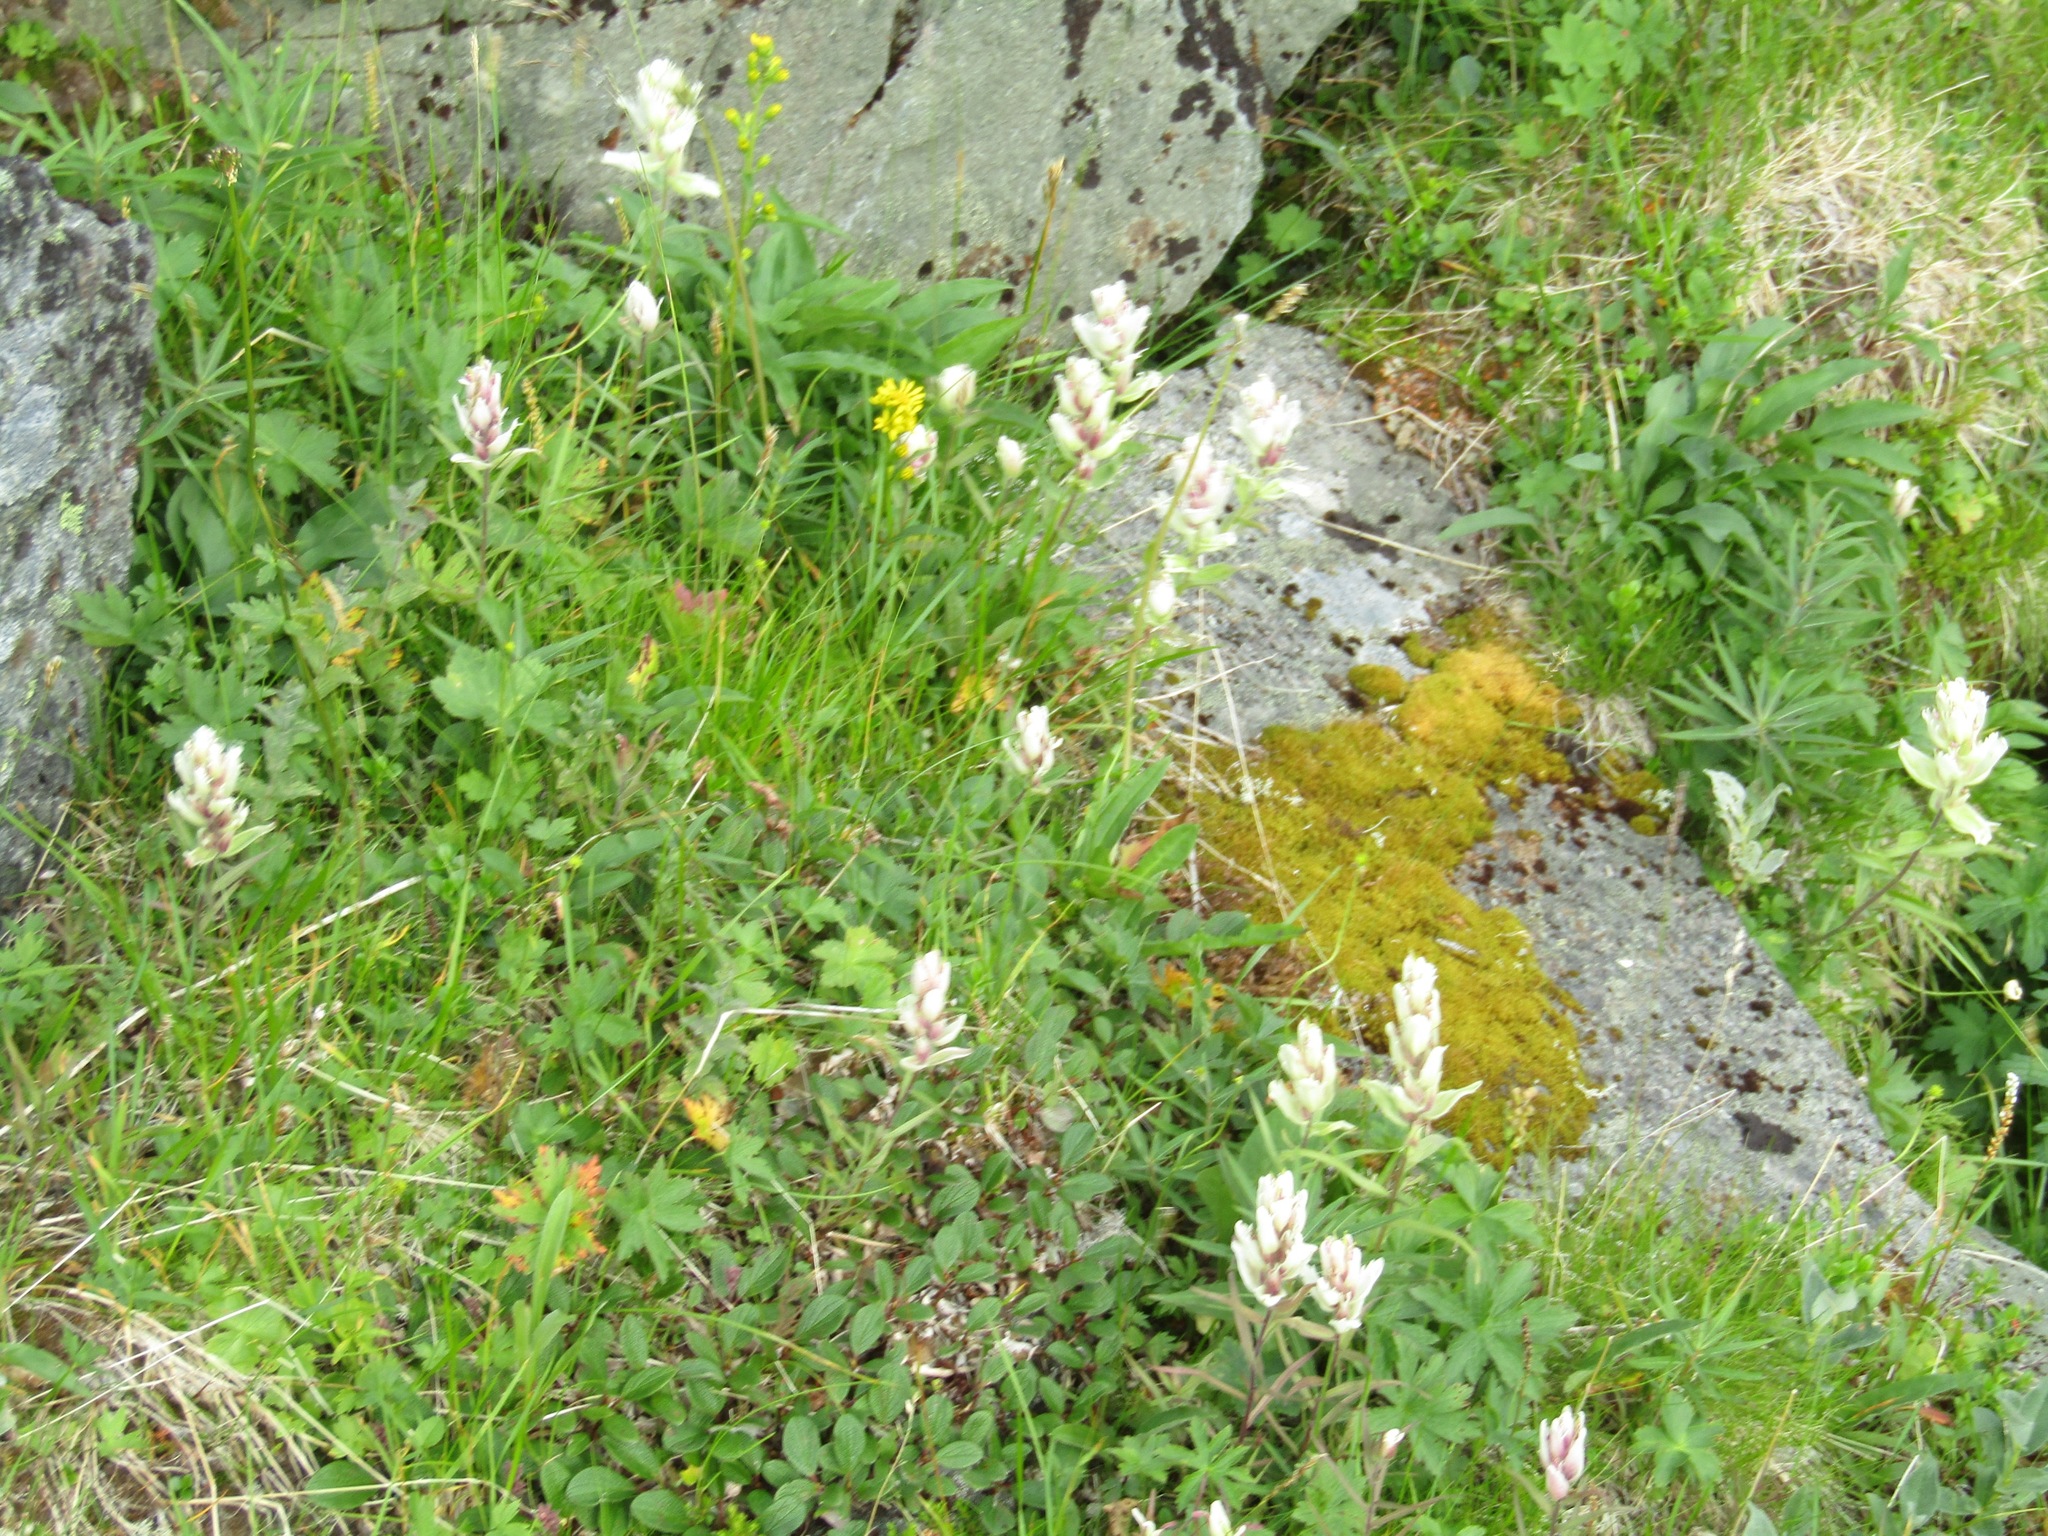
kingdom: Plantae
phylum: Tracheophyta
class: Magnoliopsida
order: Lamiales
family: Orobanchaceae
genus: Castilleja
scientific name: Castilleja lapponica
